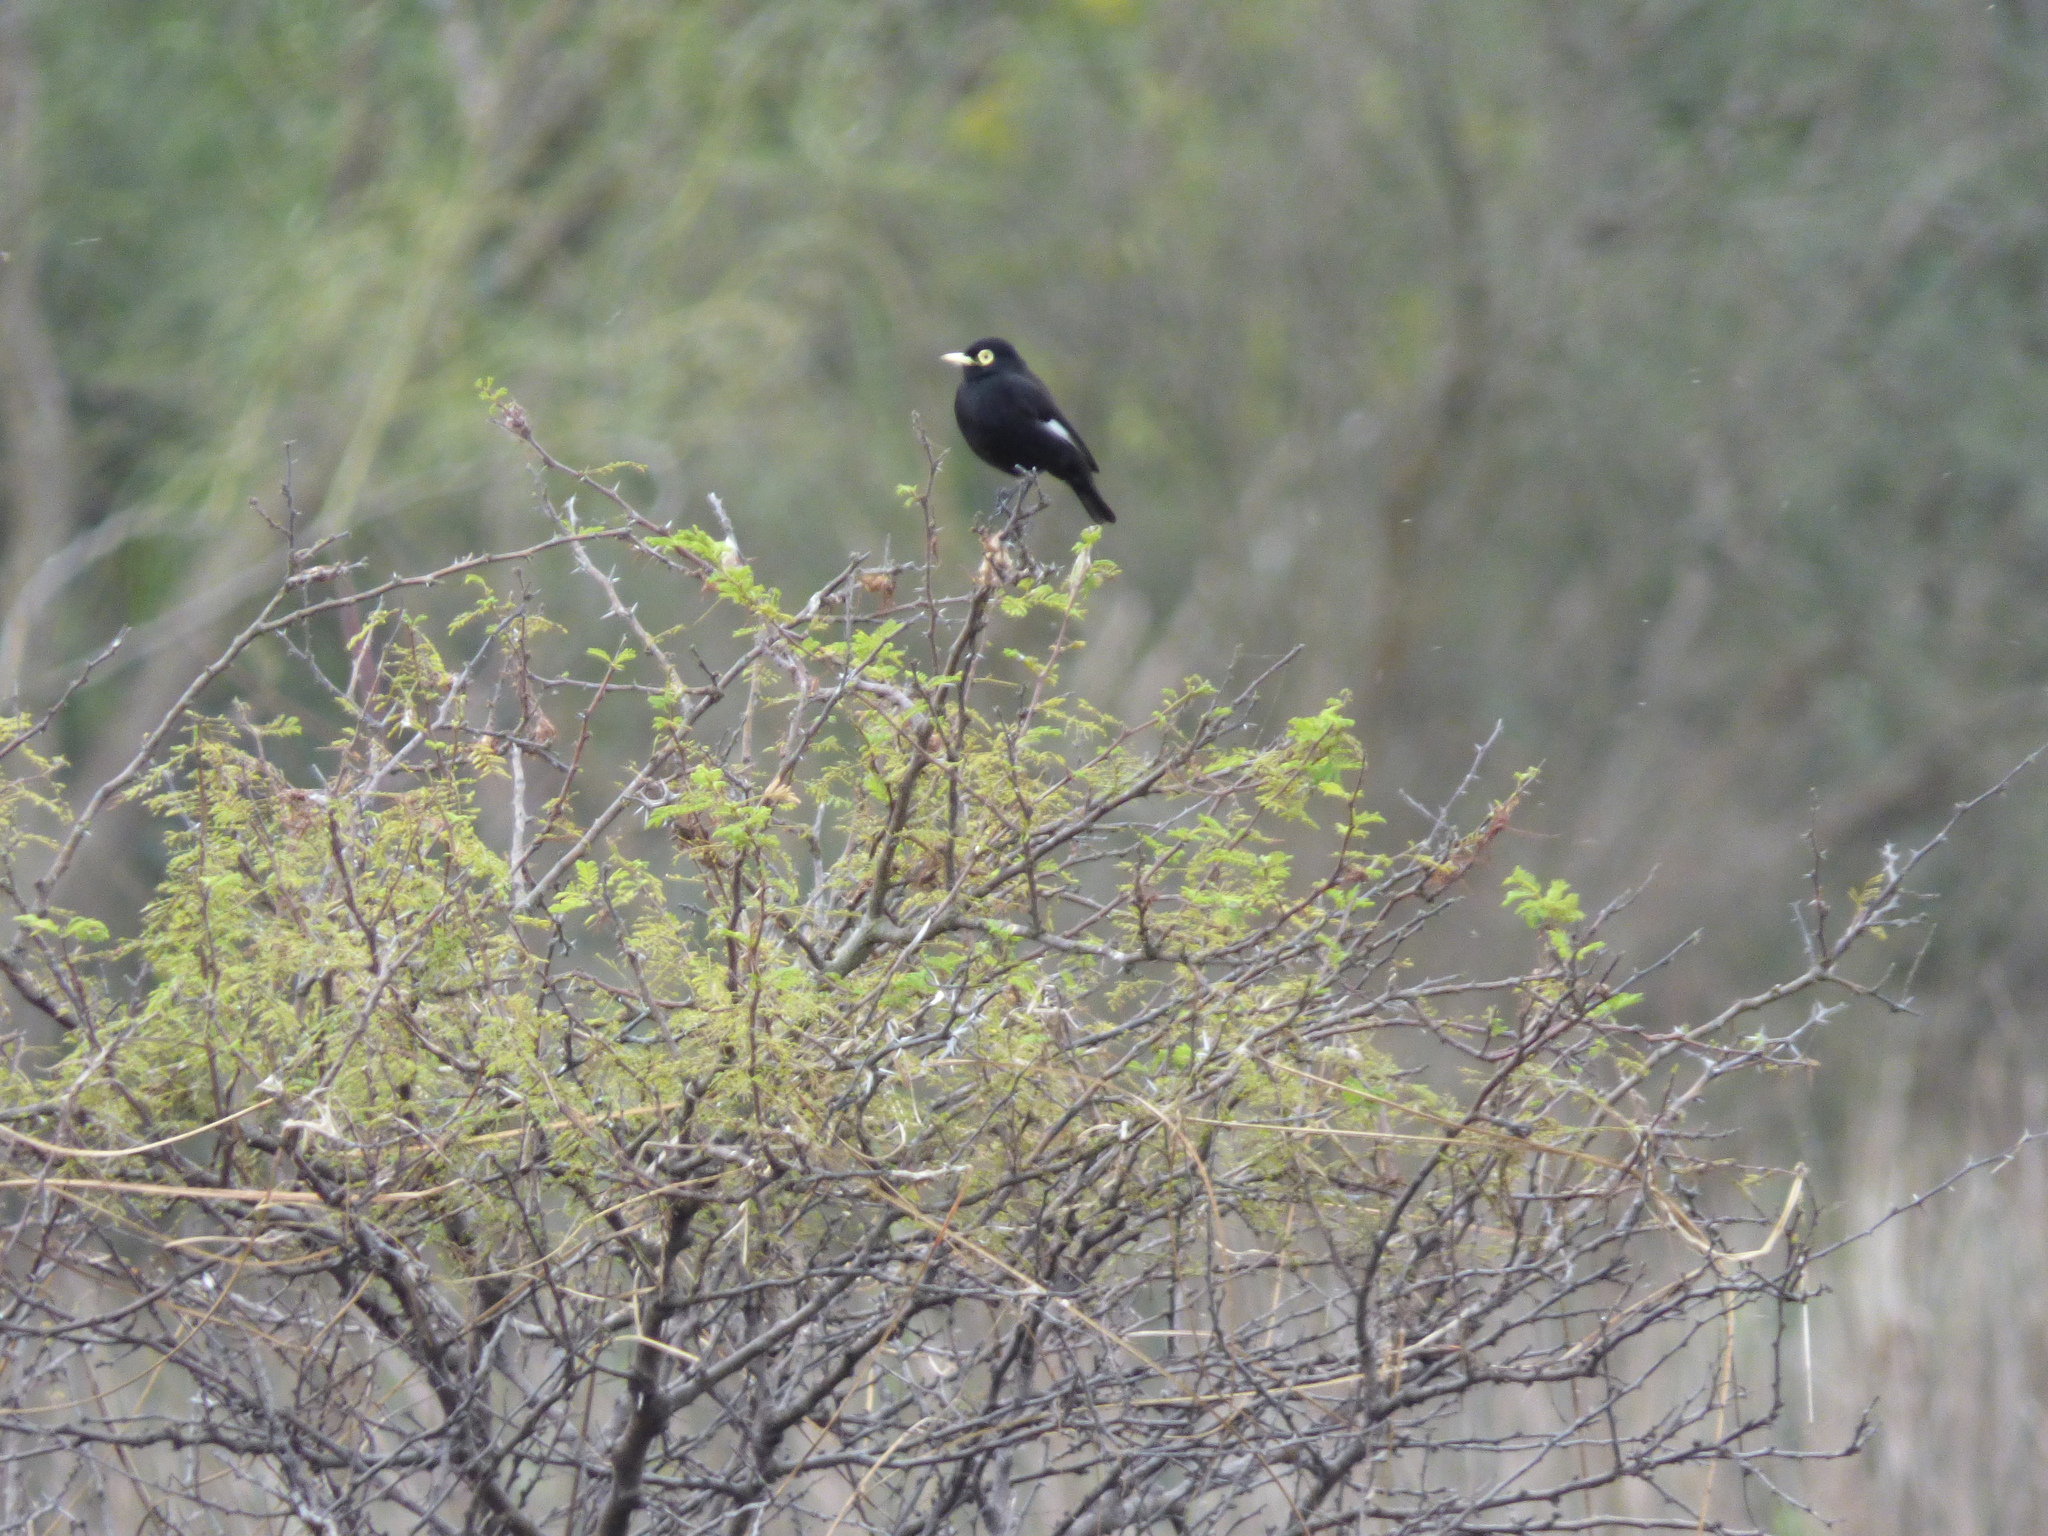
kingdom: Animalia
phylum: Chordata
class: Aves
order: Passeriformes
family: Tyrannidae
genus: Hymenops
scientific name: Hymenops perspicillatus
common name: Spectacled tyrant
